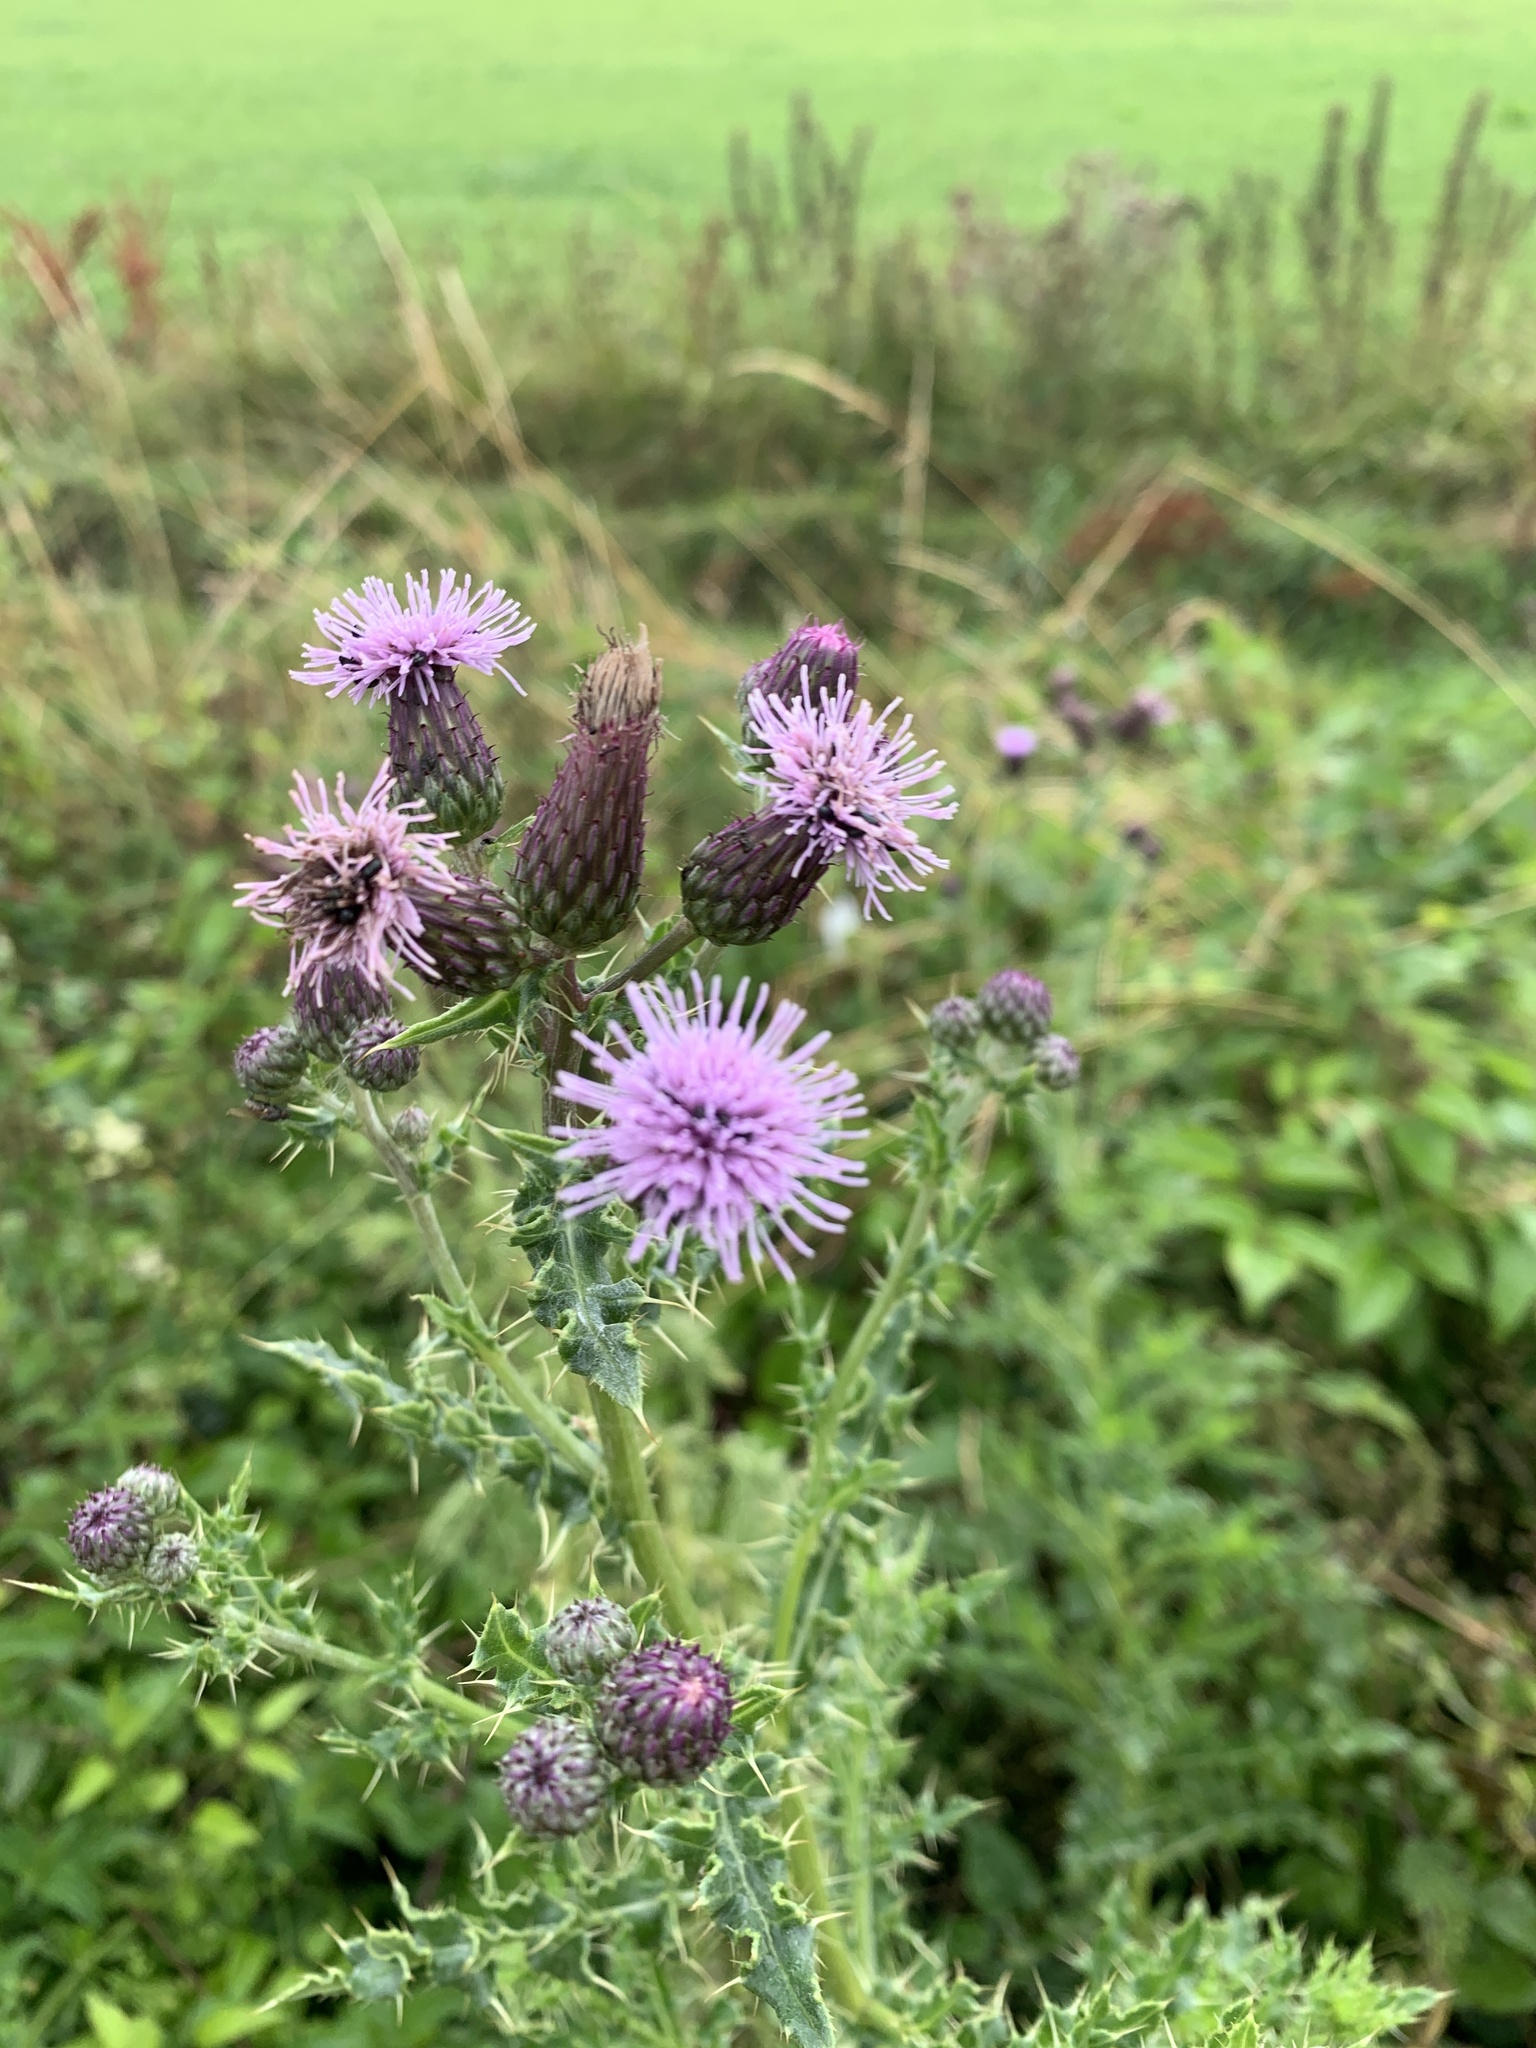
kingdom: Plantae
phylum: Tracheophyta
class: Magnoliopsida
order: Asterales
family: Asteraceae
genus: Cirsium
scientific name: Cirsium arvense
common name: Creeping thistle
